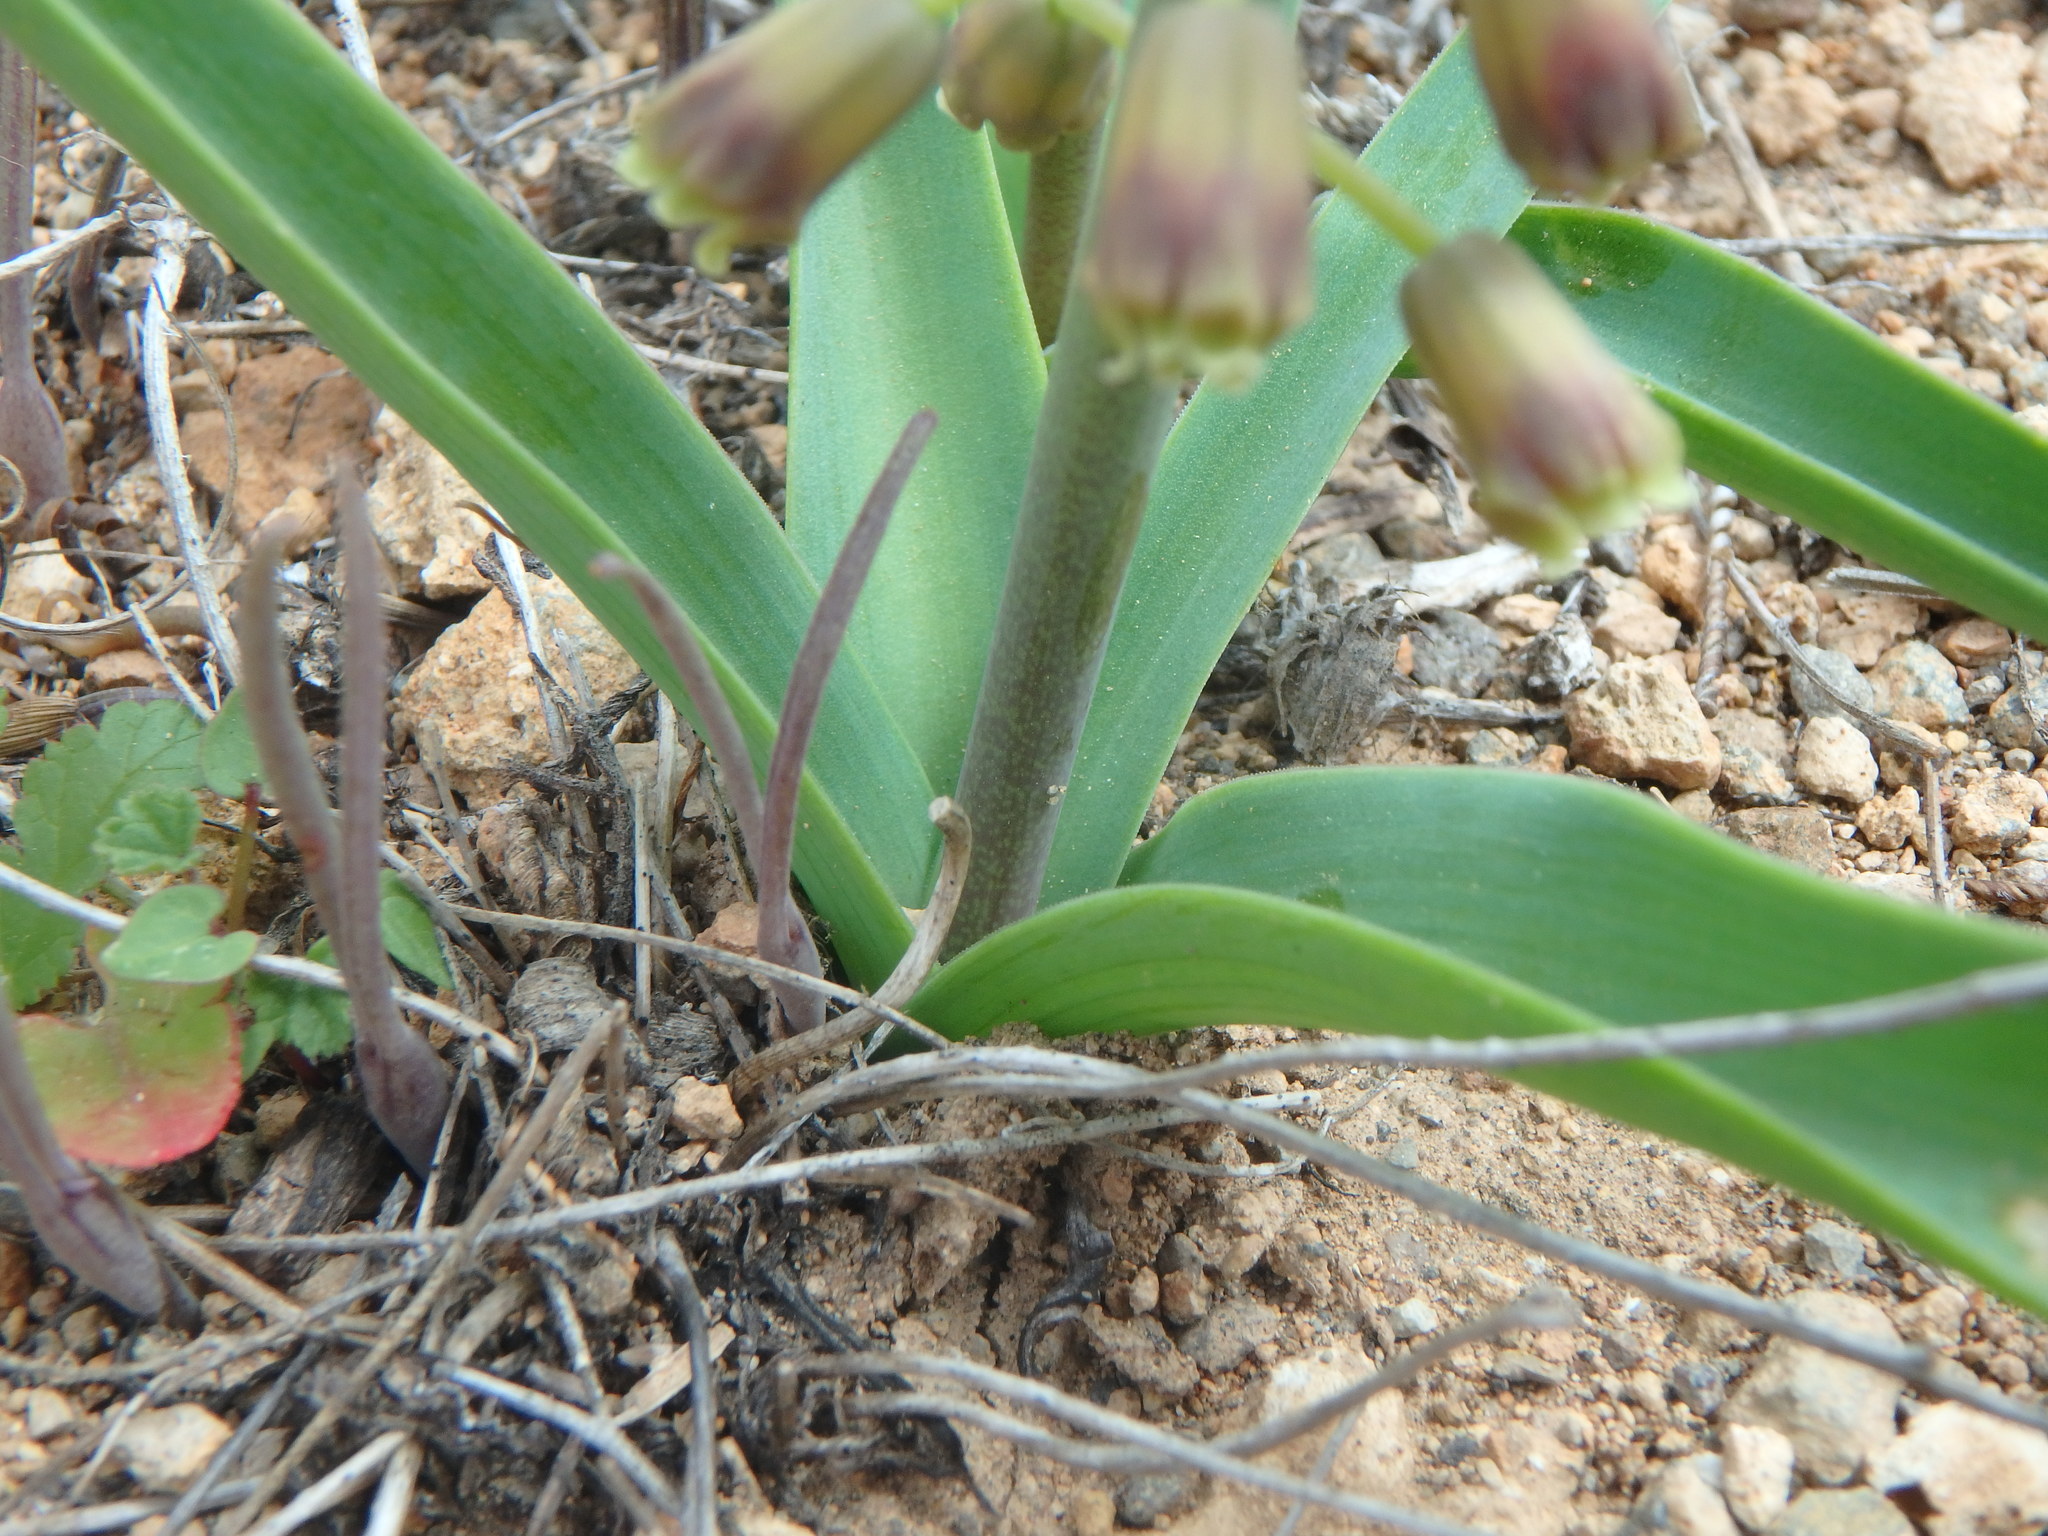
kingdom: Plantae
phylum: Tracheophyta
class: Liliopsida
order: Asparagales
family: Asparagaceae
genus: Muscari
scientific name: Muscari comosum
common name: Tassel hyacinth
